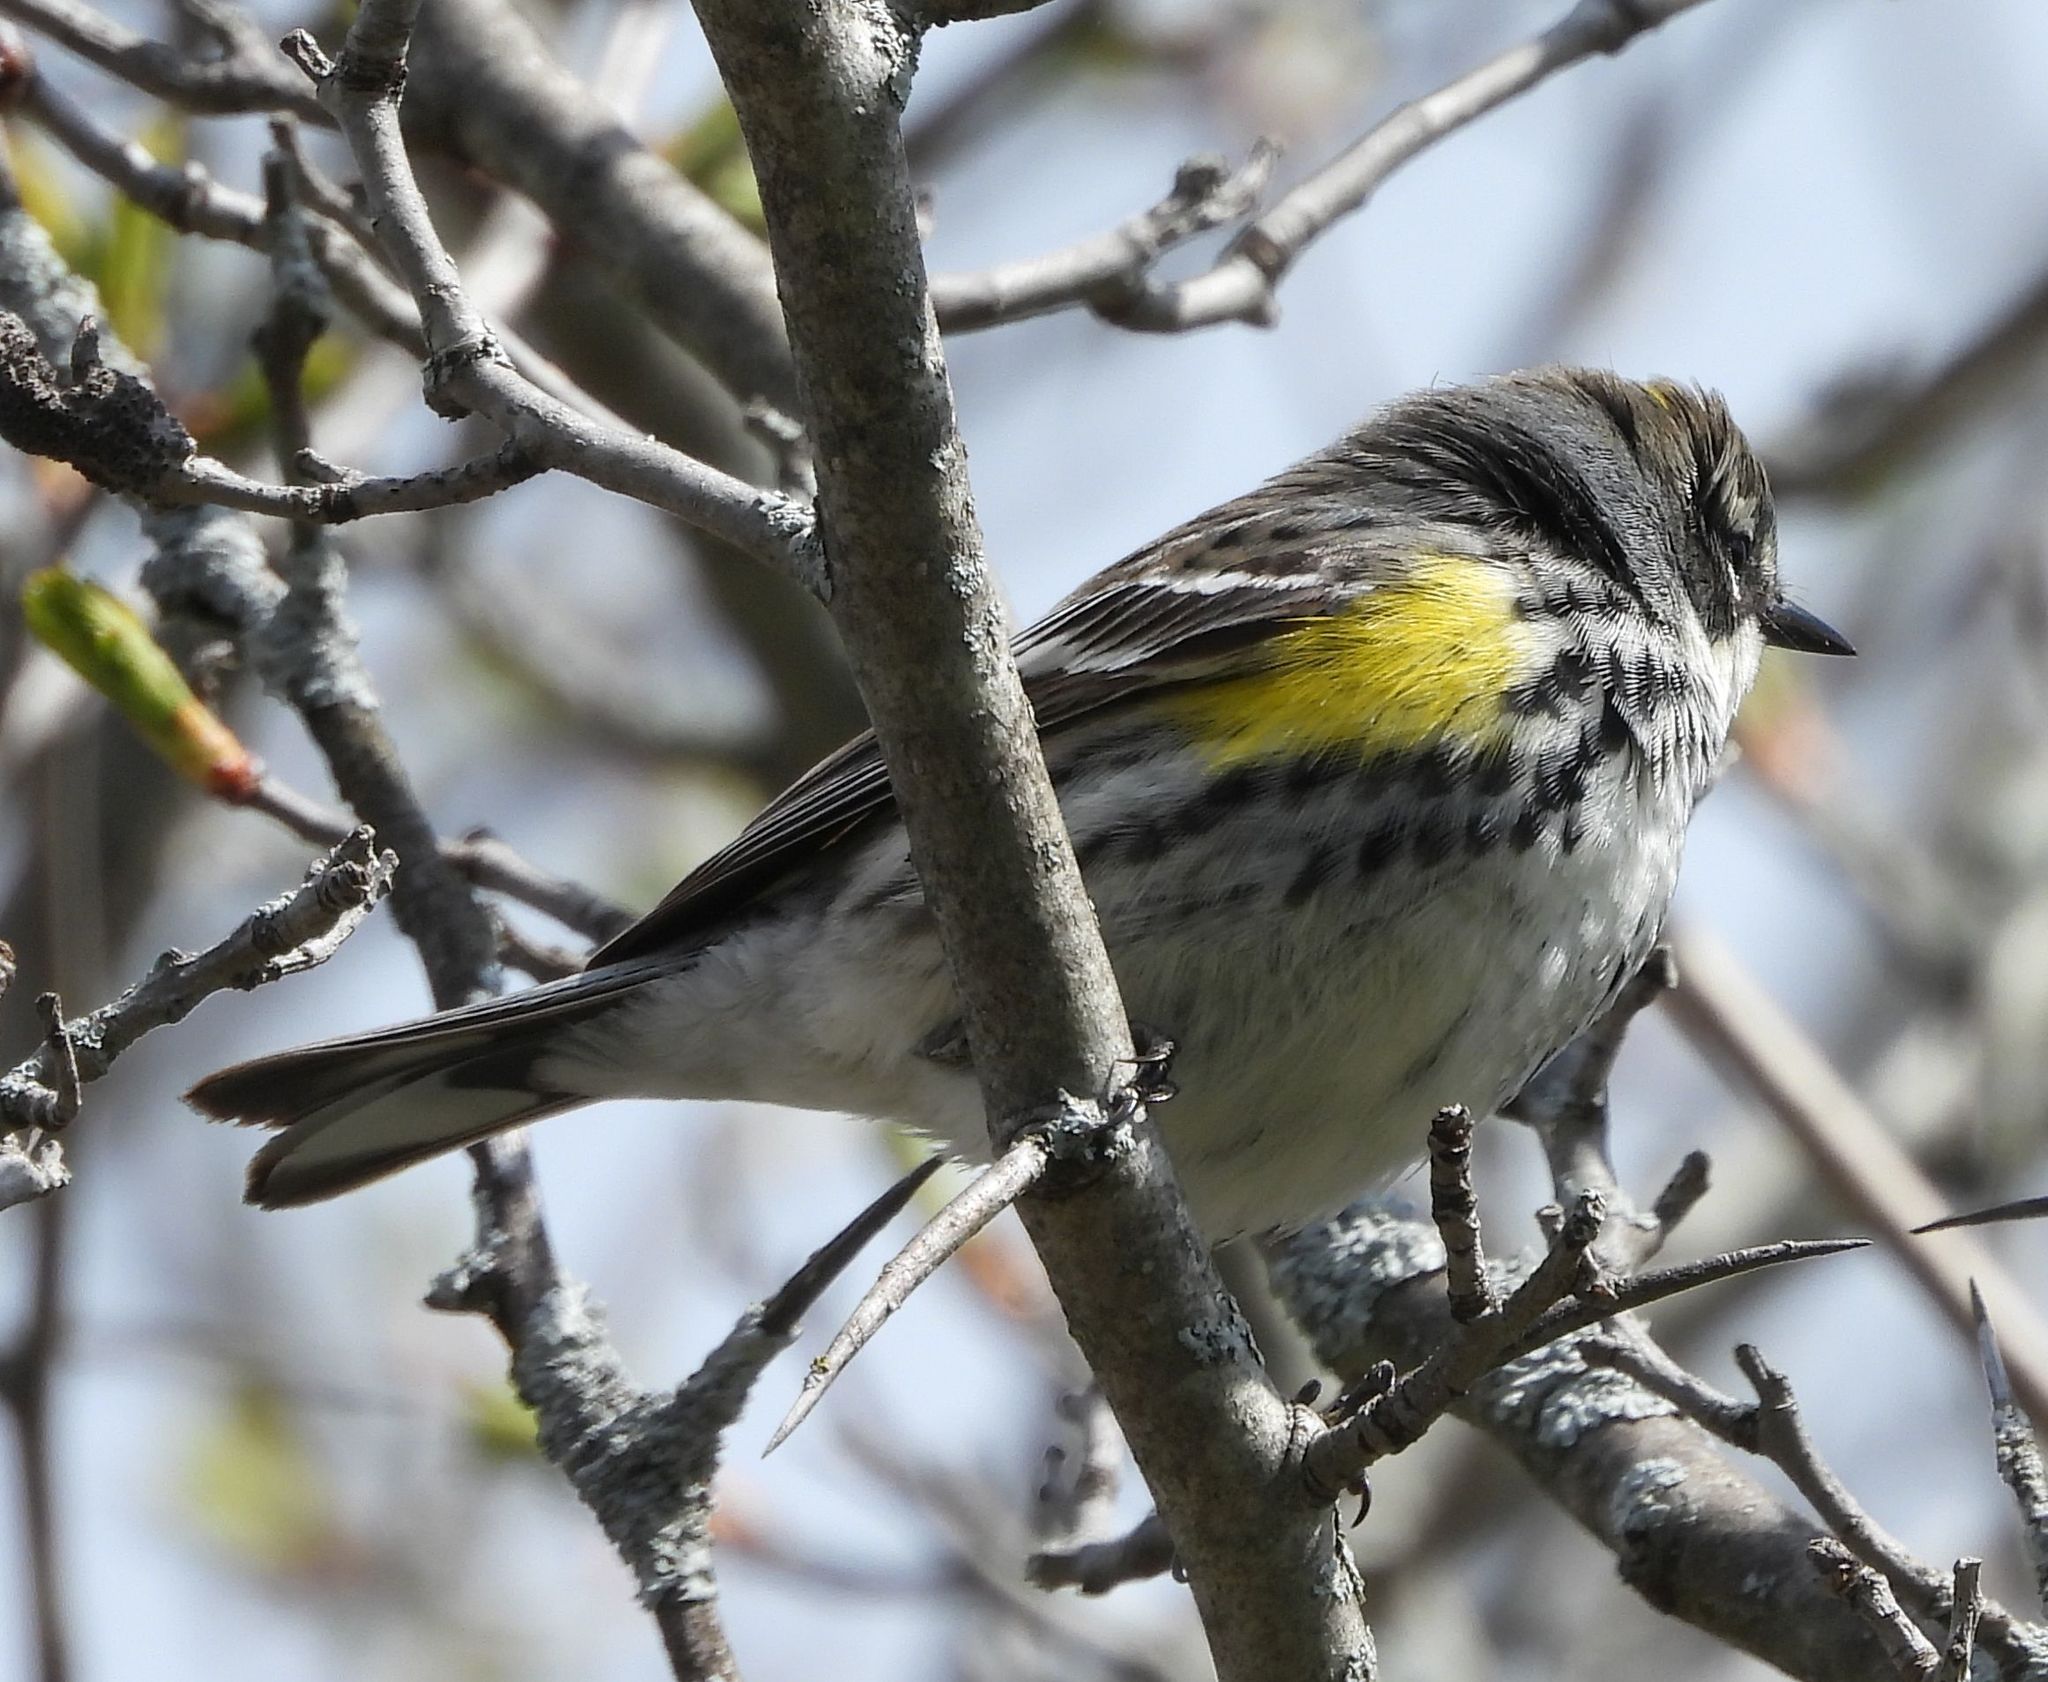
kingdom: Animalia
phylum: Chordata
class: Aves
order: Passeriformes
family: Parulidae
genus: Setophaga
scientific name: Setophaga coronata
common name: Myrtle warbler
